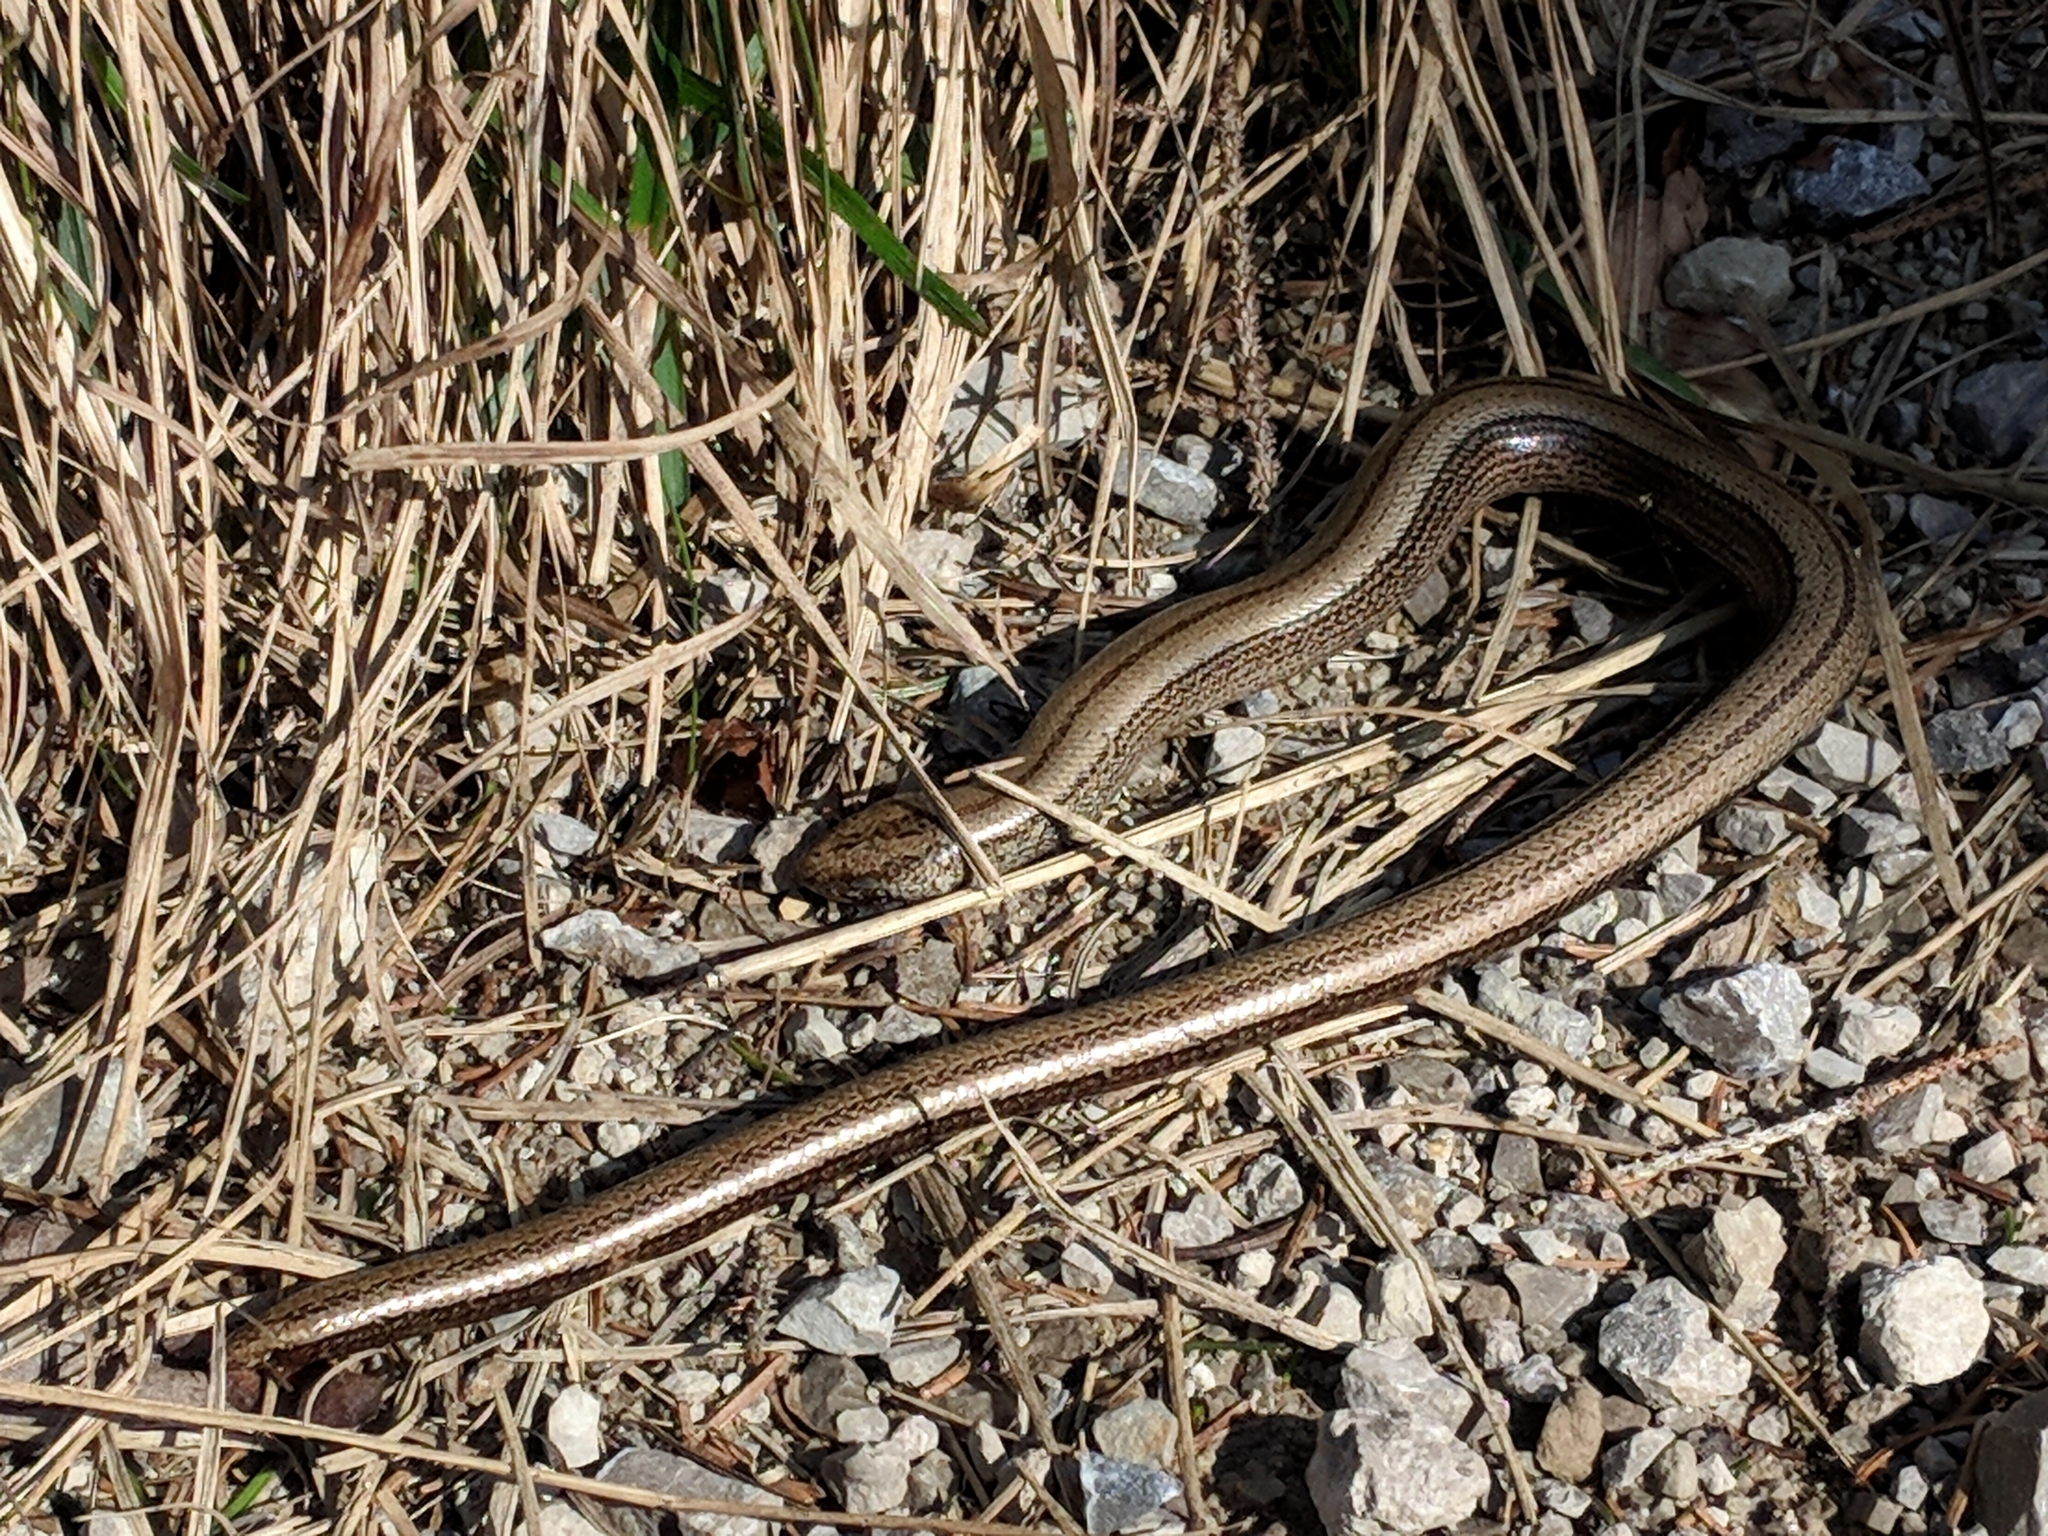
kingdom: Animalia
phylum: Chordata
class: Squamata
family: Anguidae
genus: Anguis
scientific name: Anguis fragilis
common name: Slow worm
